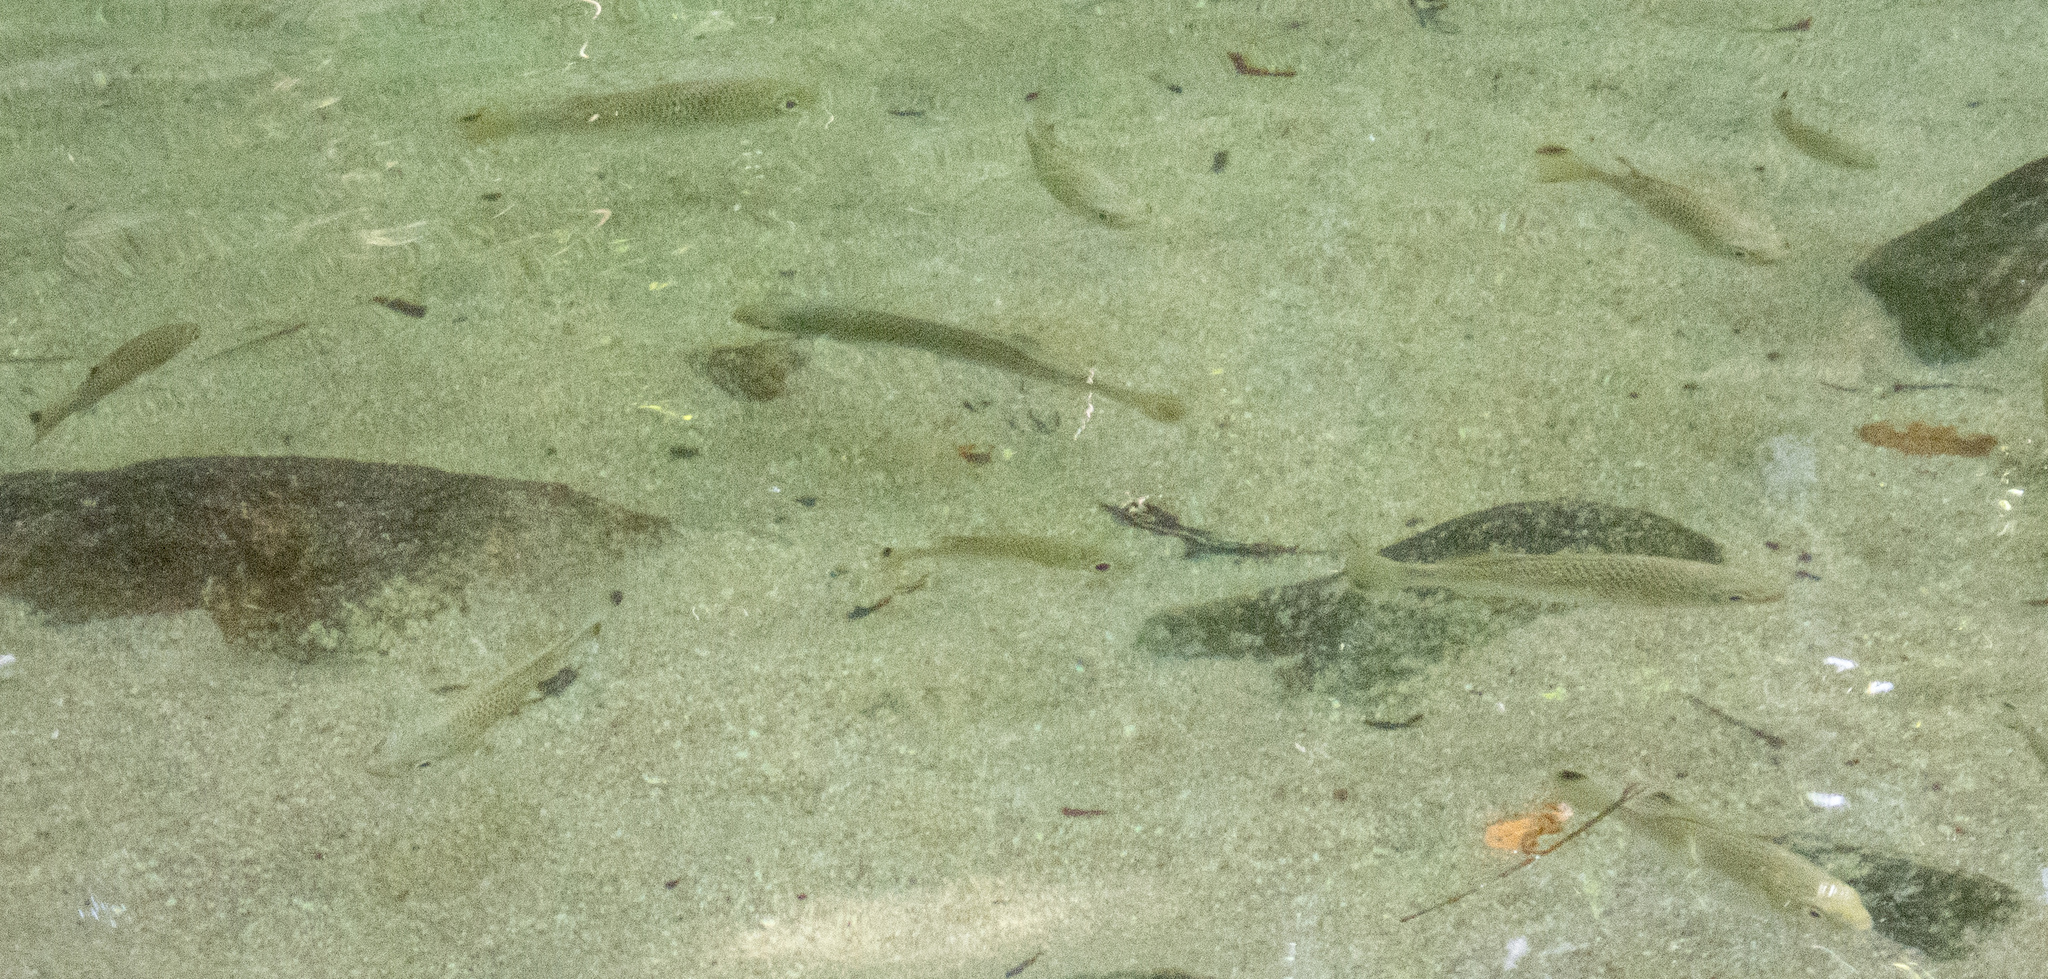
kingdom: Animalia
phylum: Chordata
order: Perciformes
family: Kuhliidae
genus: Kuhlia
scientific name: Kuhlia rupestris
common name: Rock flagtail
